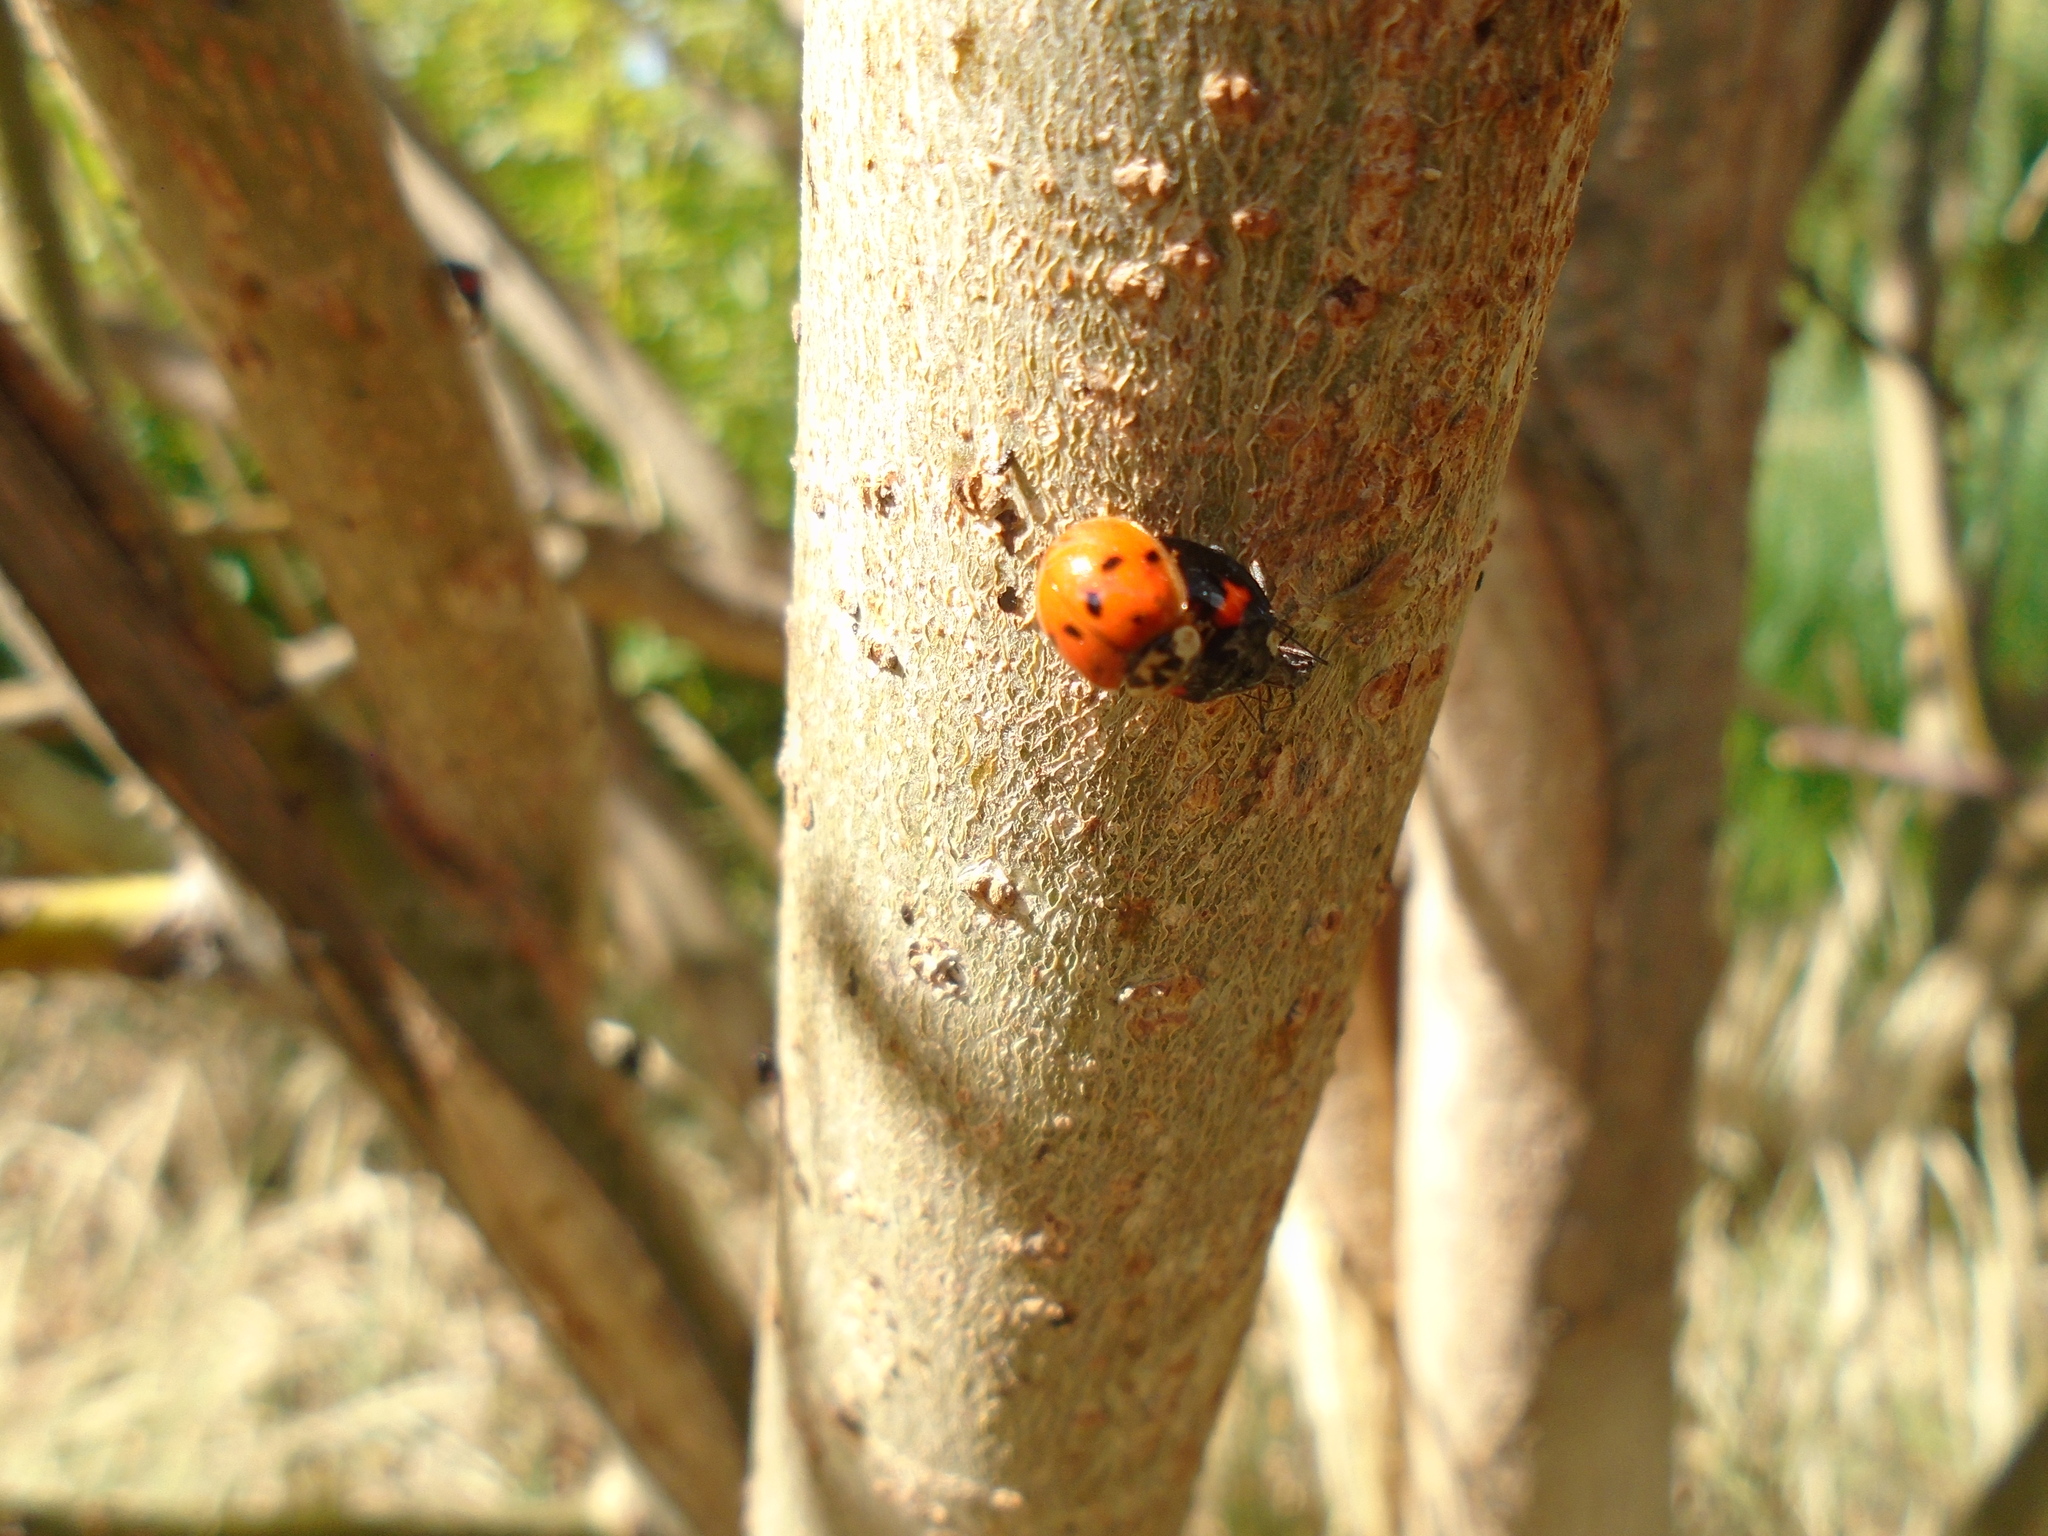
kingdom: Animalia
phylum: Arthropoda
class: Insecta
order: Coleoptera
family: Coccinellidae
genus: Harmonia
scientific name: Harmonia axyridis
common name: Harlequin ladybird
